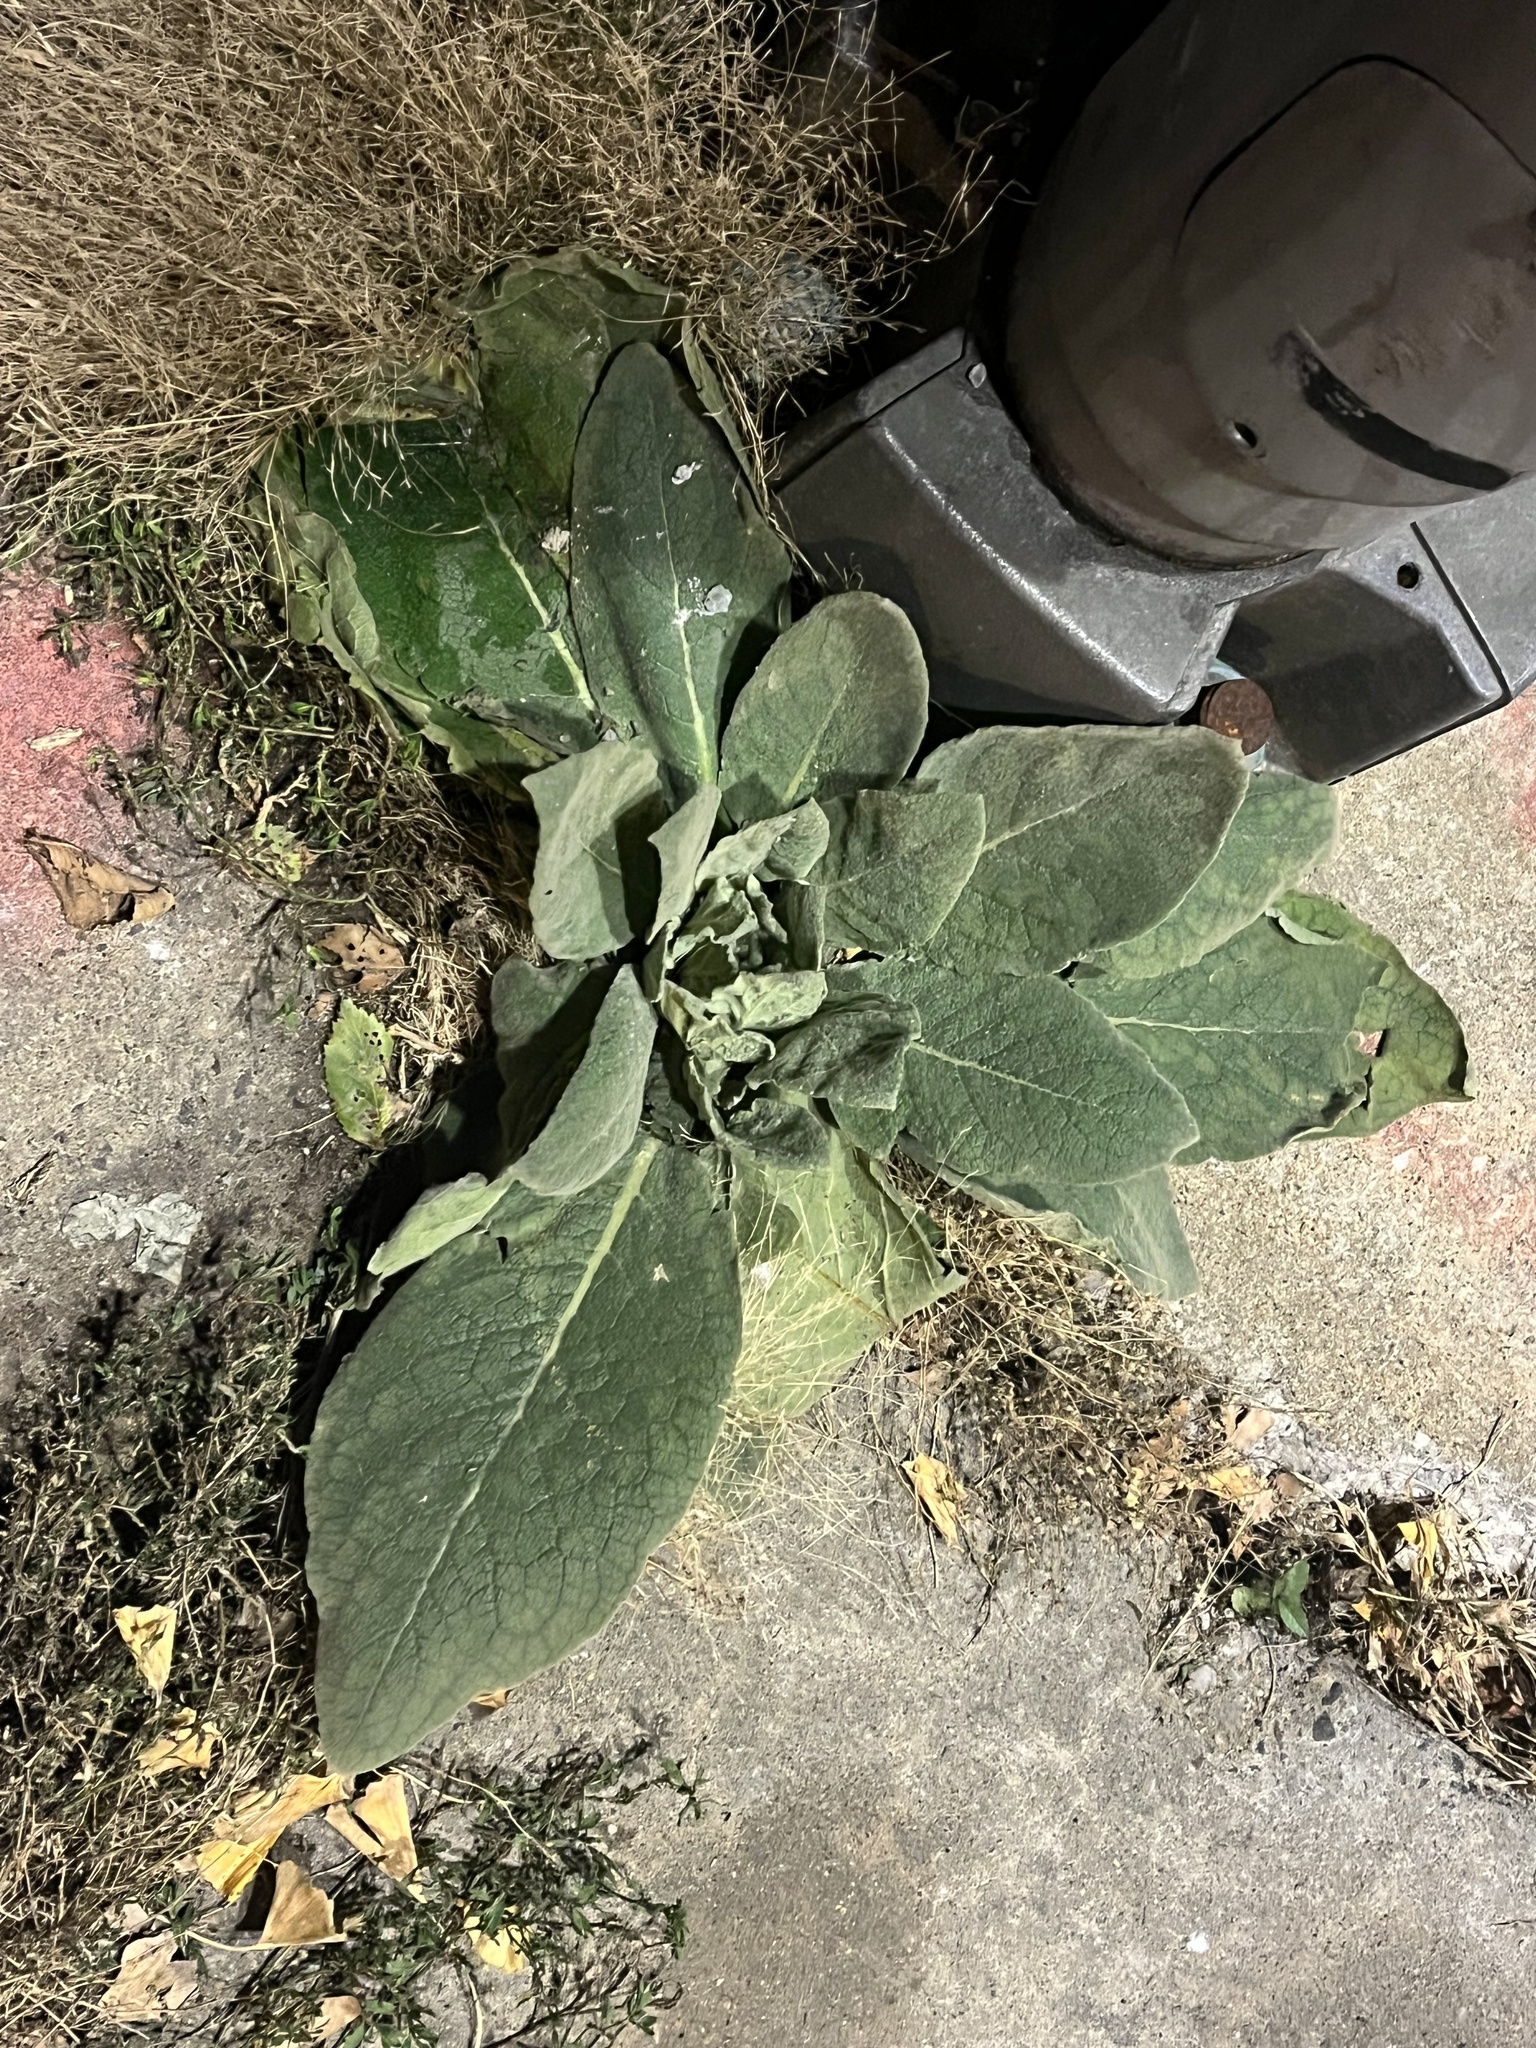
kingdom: Plantae
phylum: Tracheophyta
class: Magnoliopsida
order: Lamiales
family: Scrophulariaceae
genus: Verbascum
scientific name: Verbascum thapsus
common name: Common mullein
